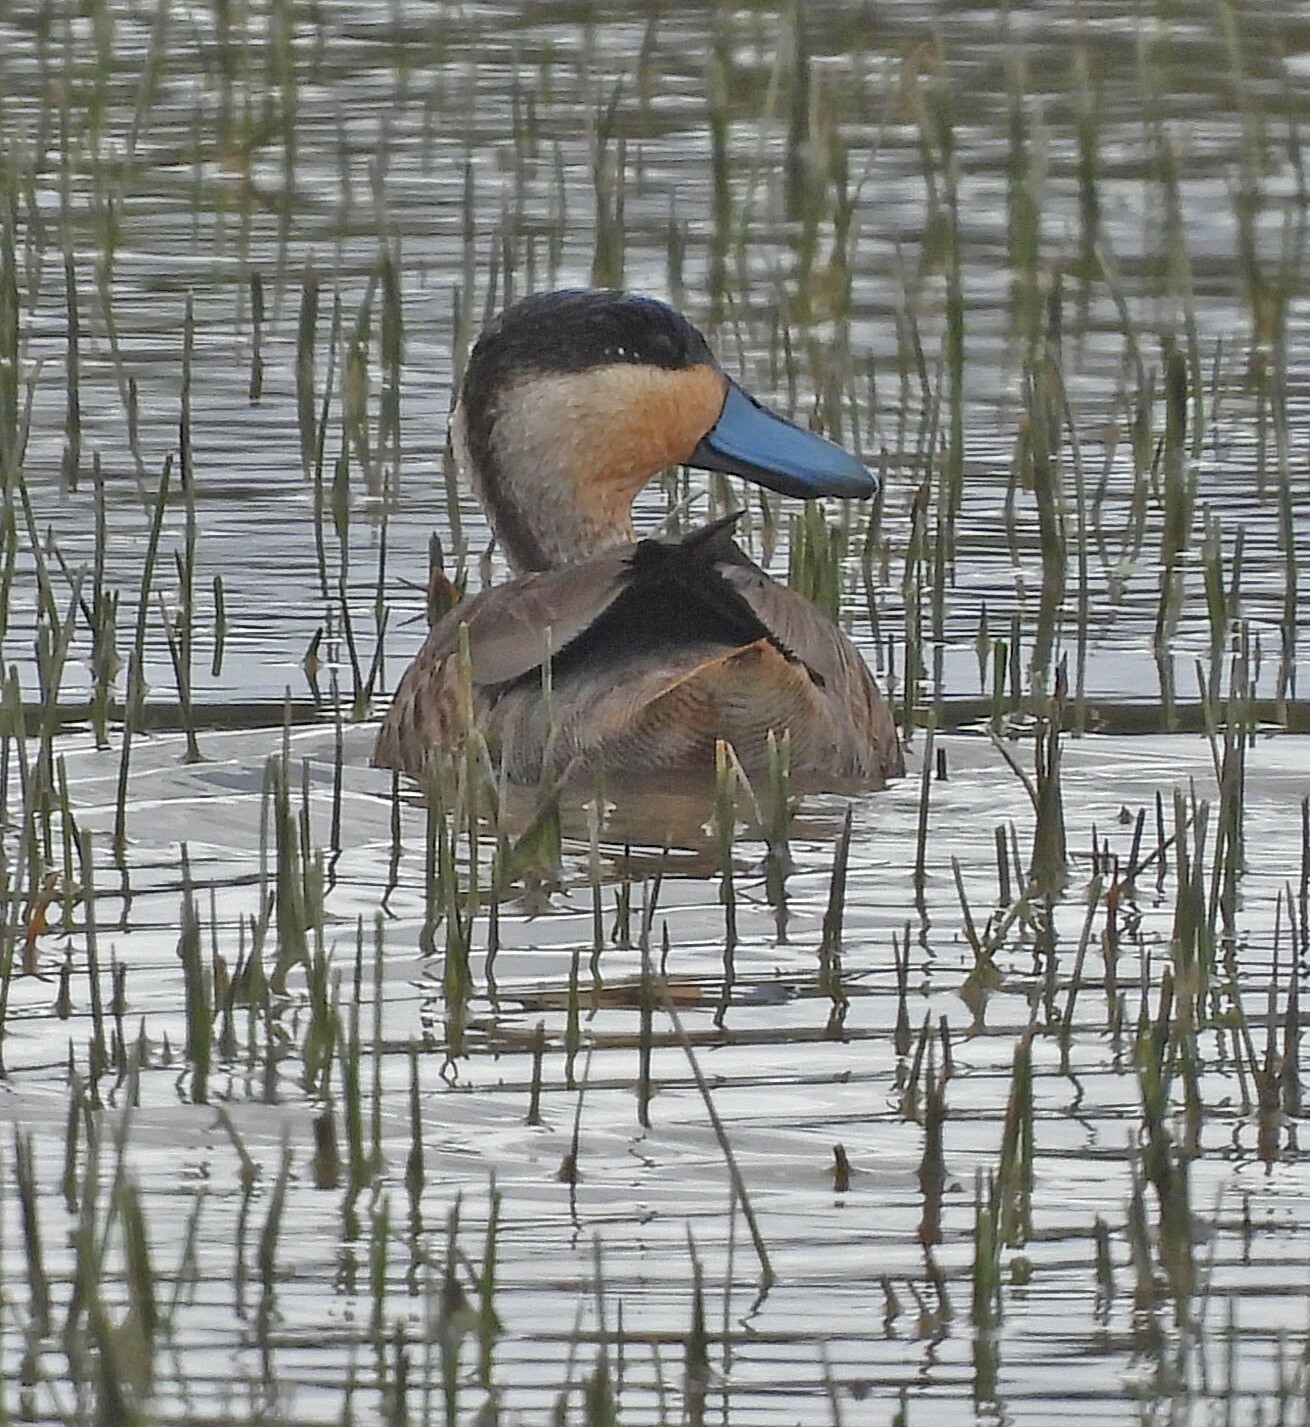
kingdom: Animalia
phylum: Chordata
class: Aves
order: Anseriformes
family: Anatidae
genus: Spatula
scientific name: Spatula puna
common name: Puna teal
